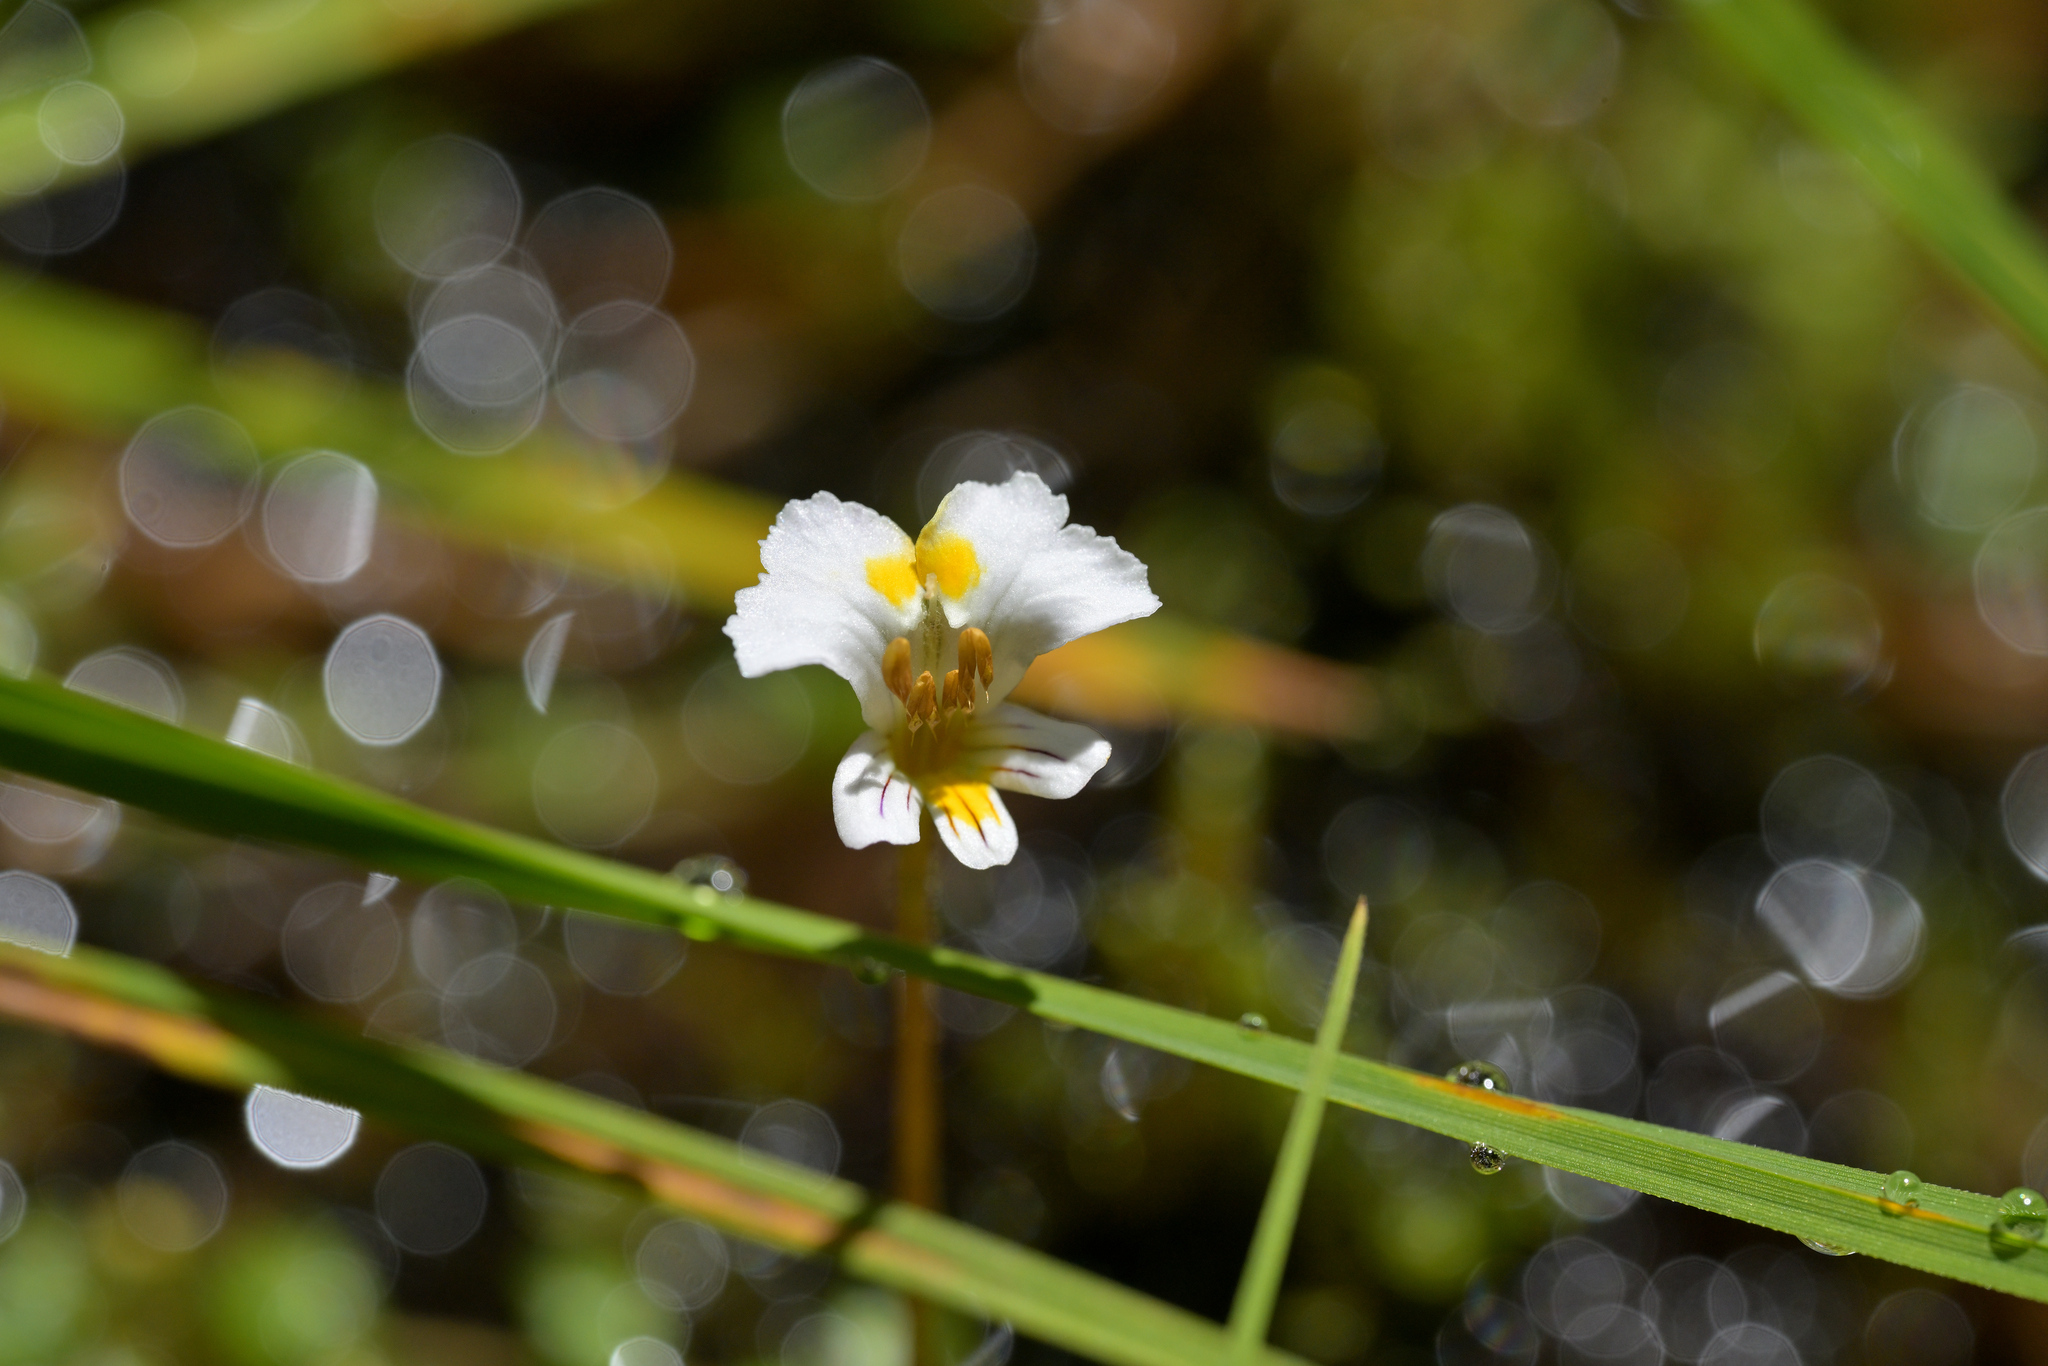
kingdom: Plantae
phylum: Tracheophyta
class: Magnoliopsida
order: Lamiales
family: Orobanchaceae
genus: Euphrasia
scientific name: Euphrasia disperma
